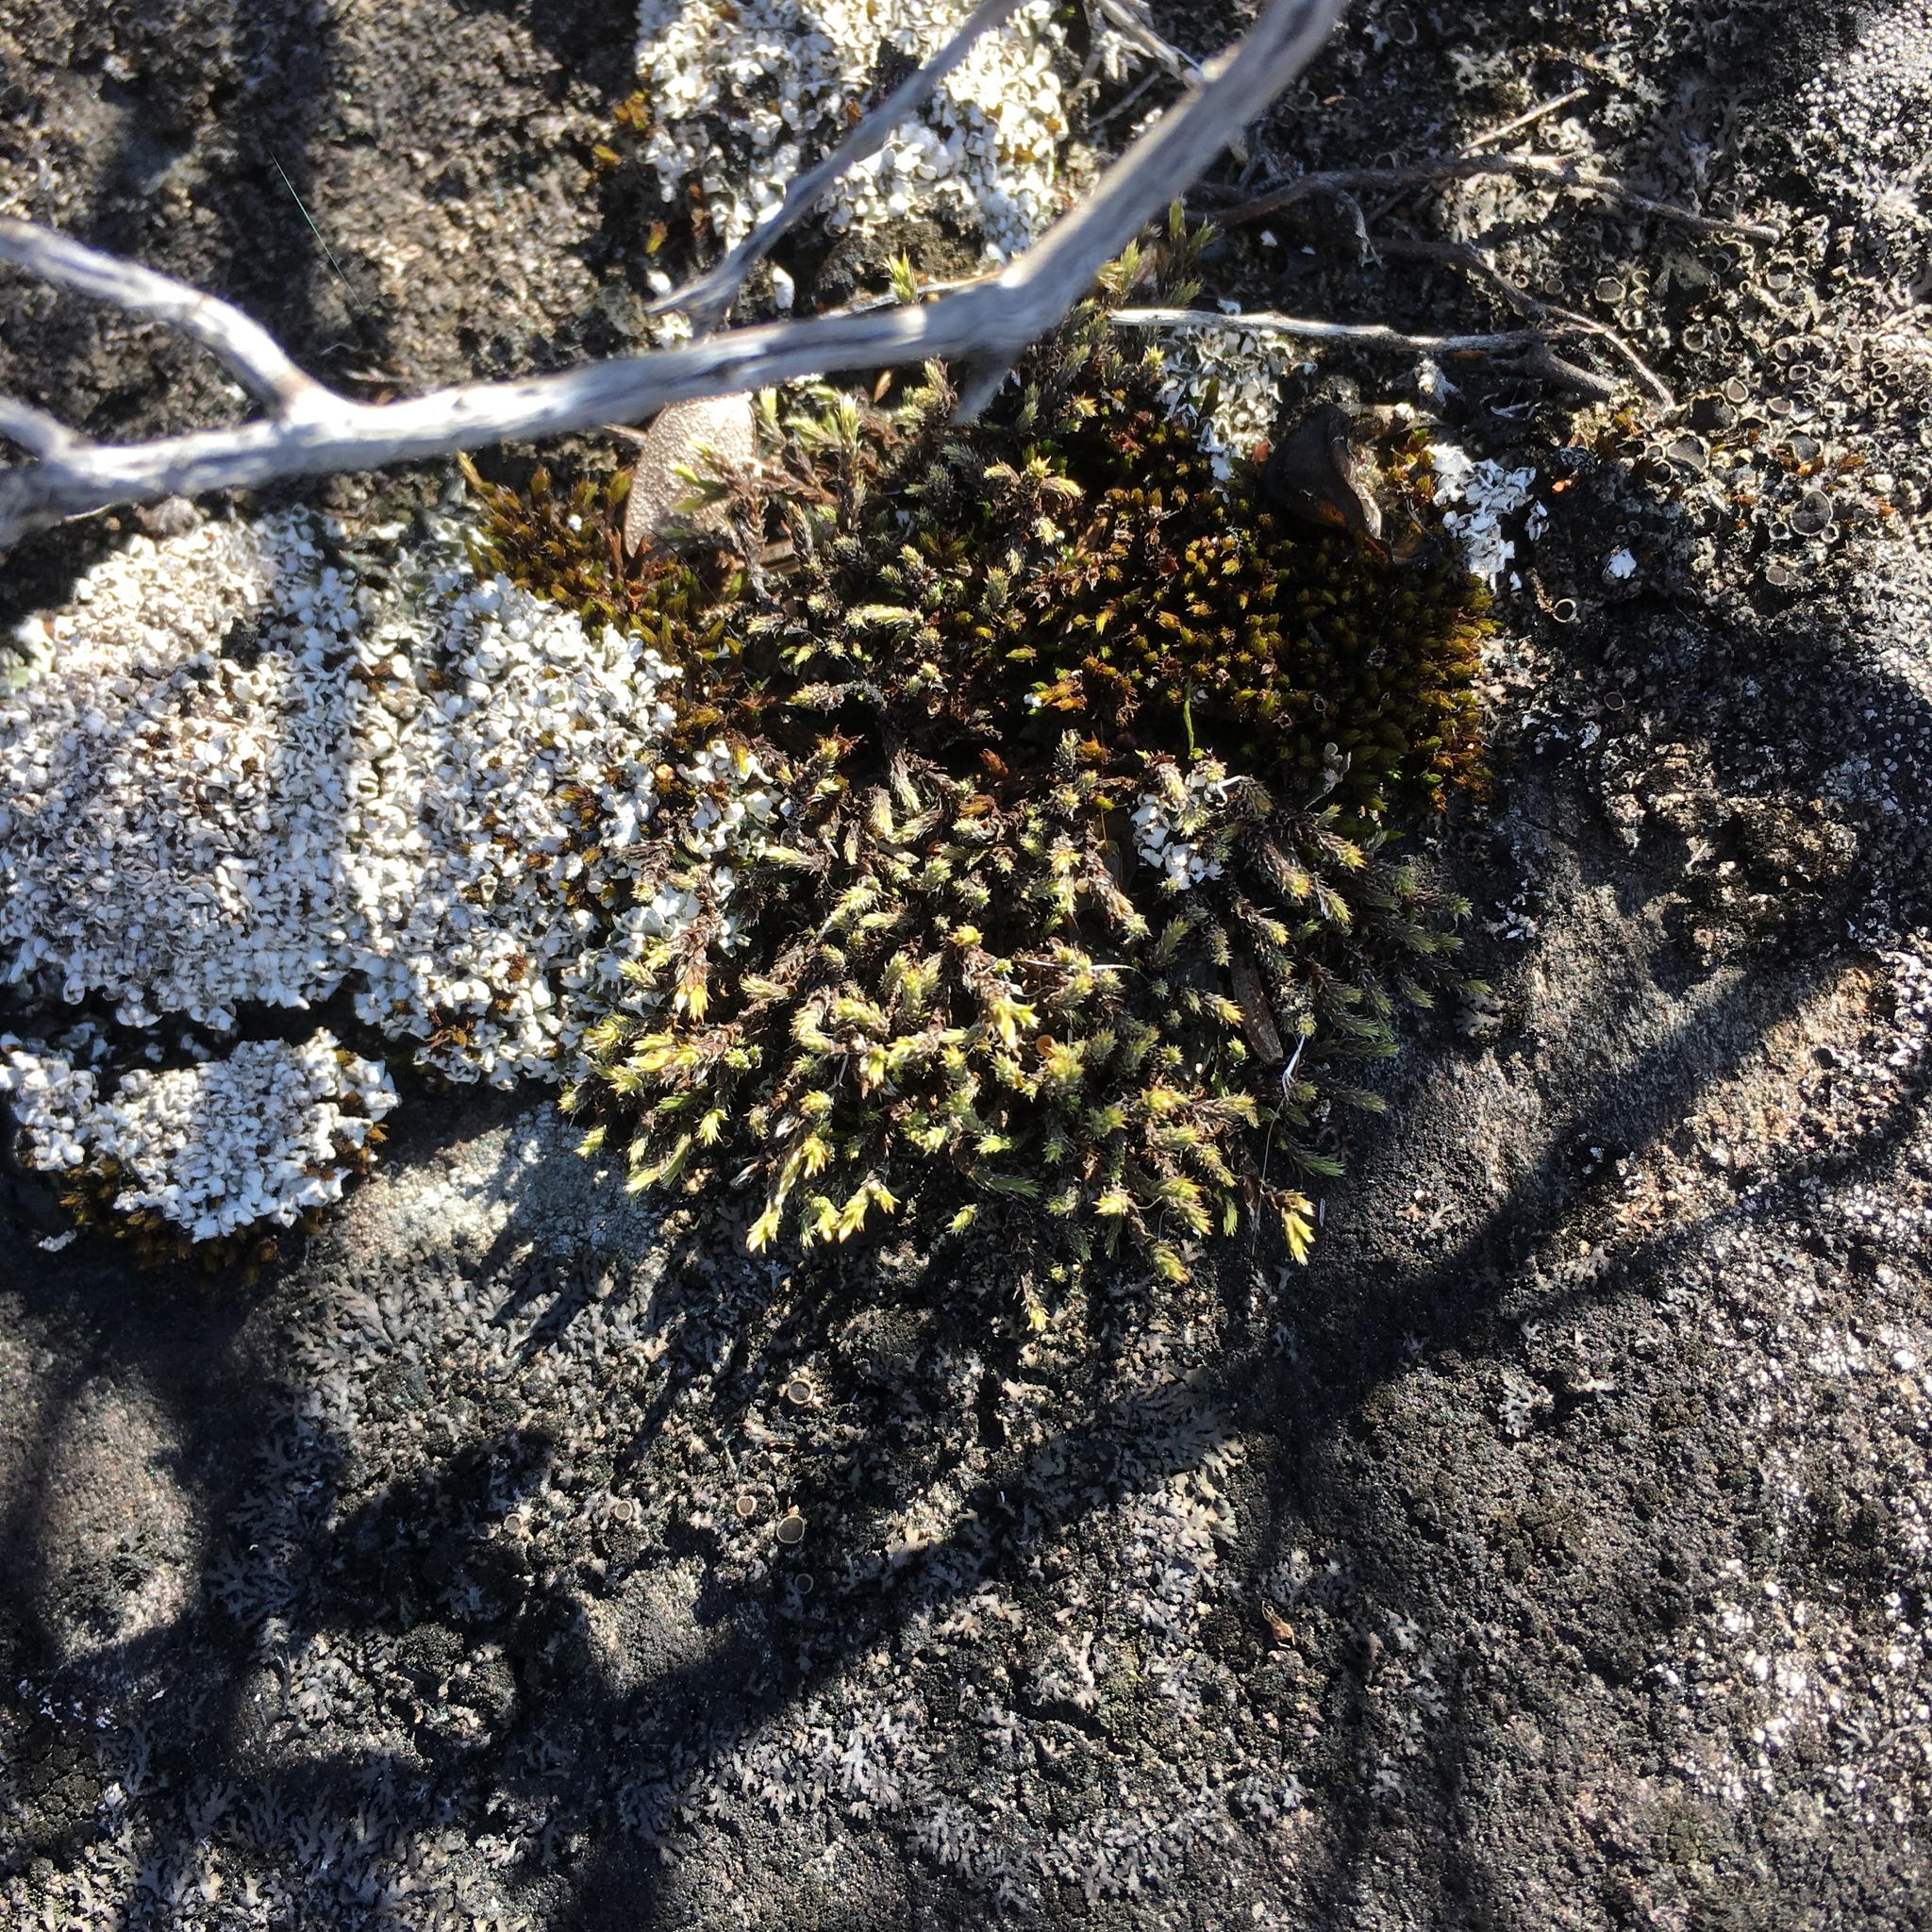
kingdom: Plantae
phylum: Bryophyta
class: Bryopsida
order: Hedwigiales
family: Hedwigiaceae
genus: Hedwigia
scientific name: Hedwigia ciliata
